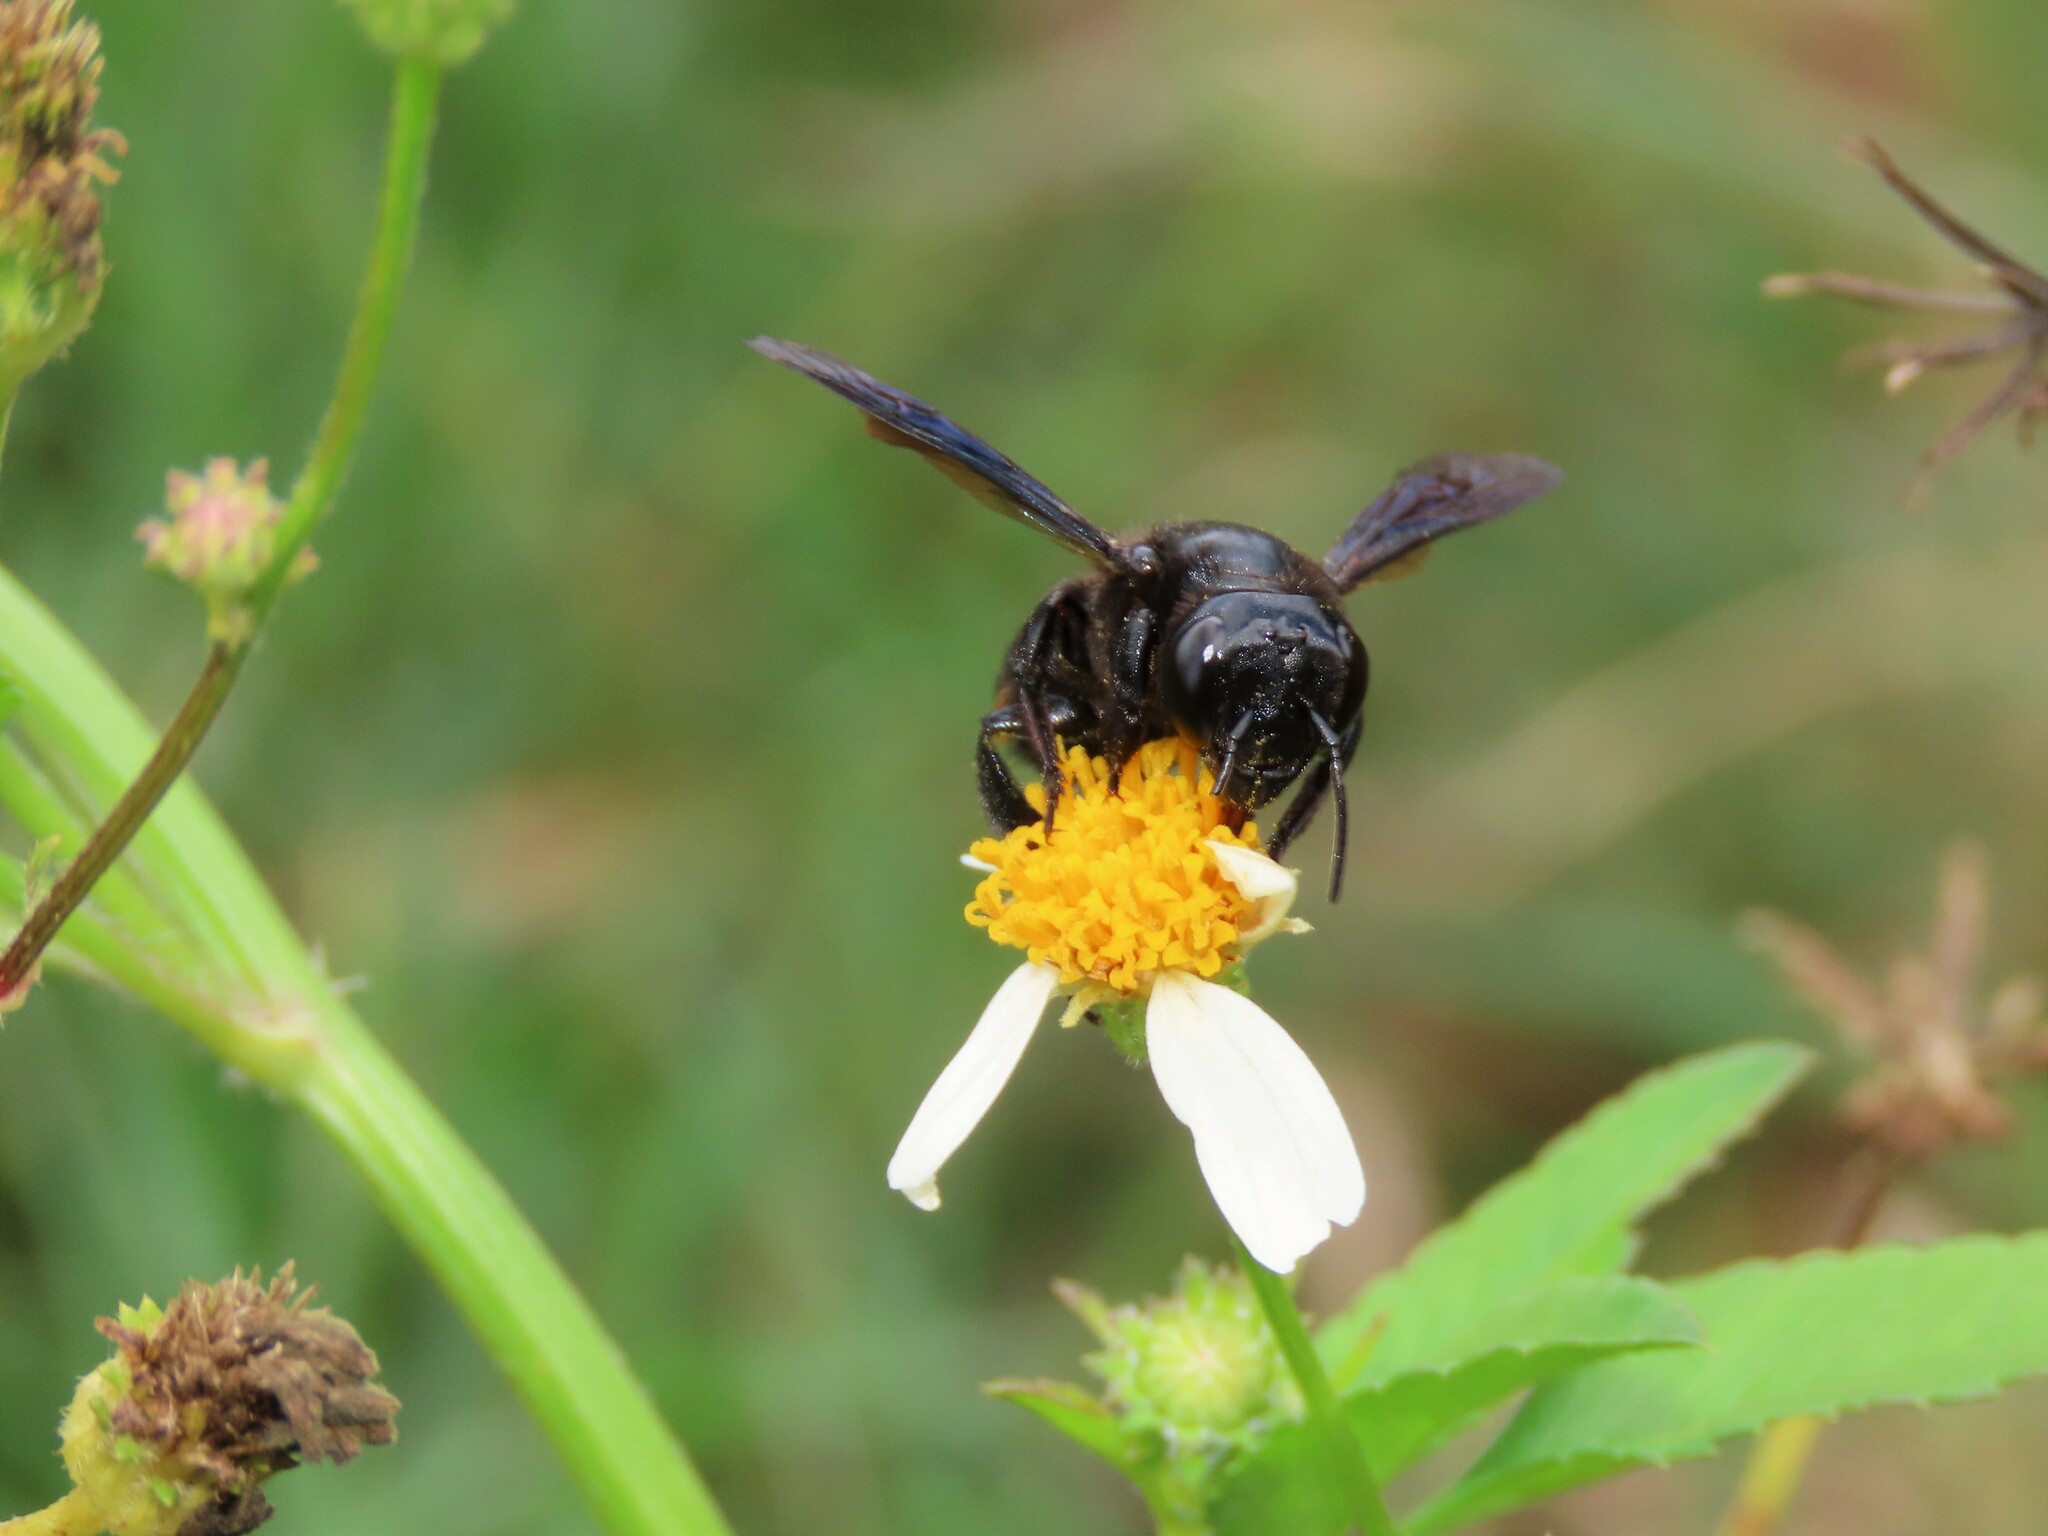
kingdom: Animalia
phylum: Arthropoda
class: Insecta
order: Hymenoptera
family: Megachilidae
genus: Megachile
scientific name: Megachile xylocopoides
